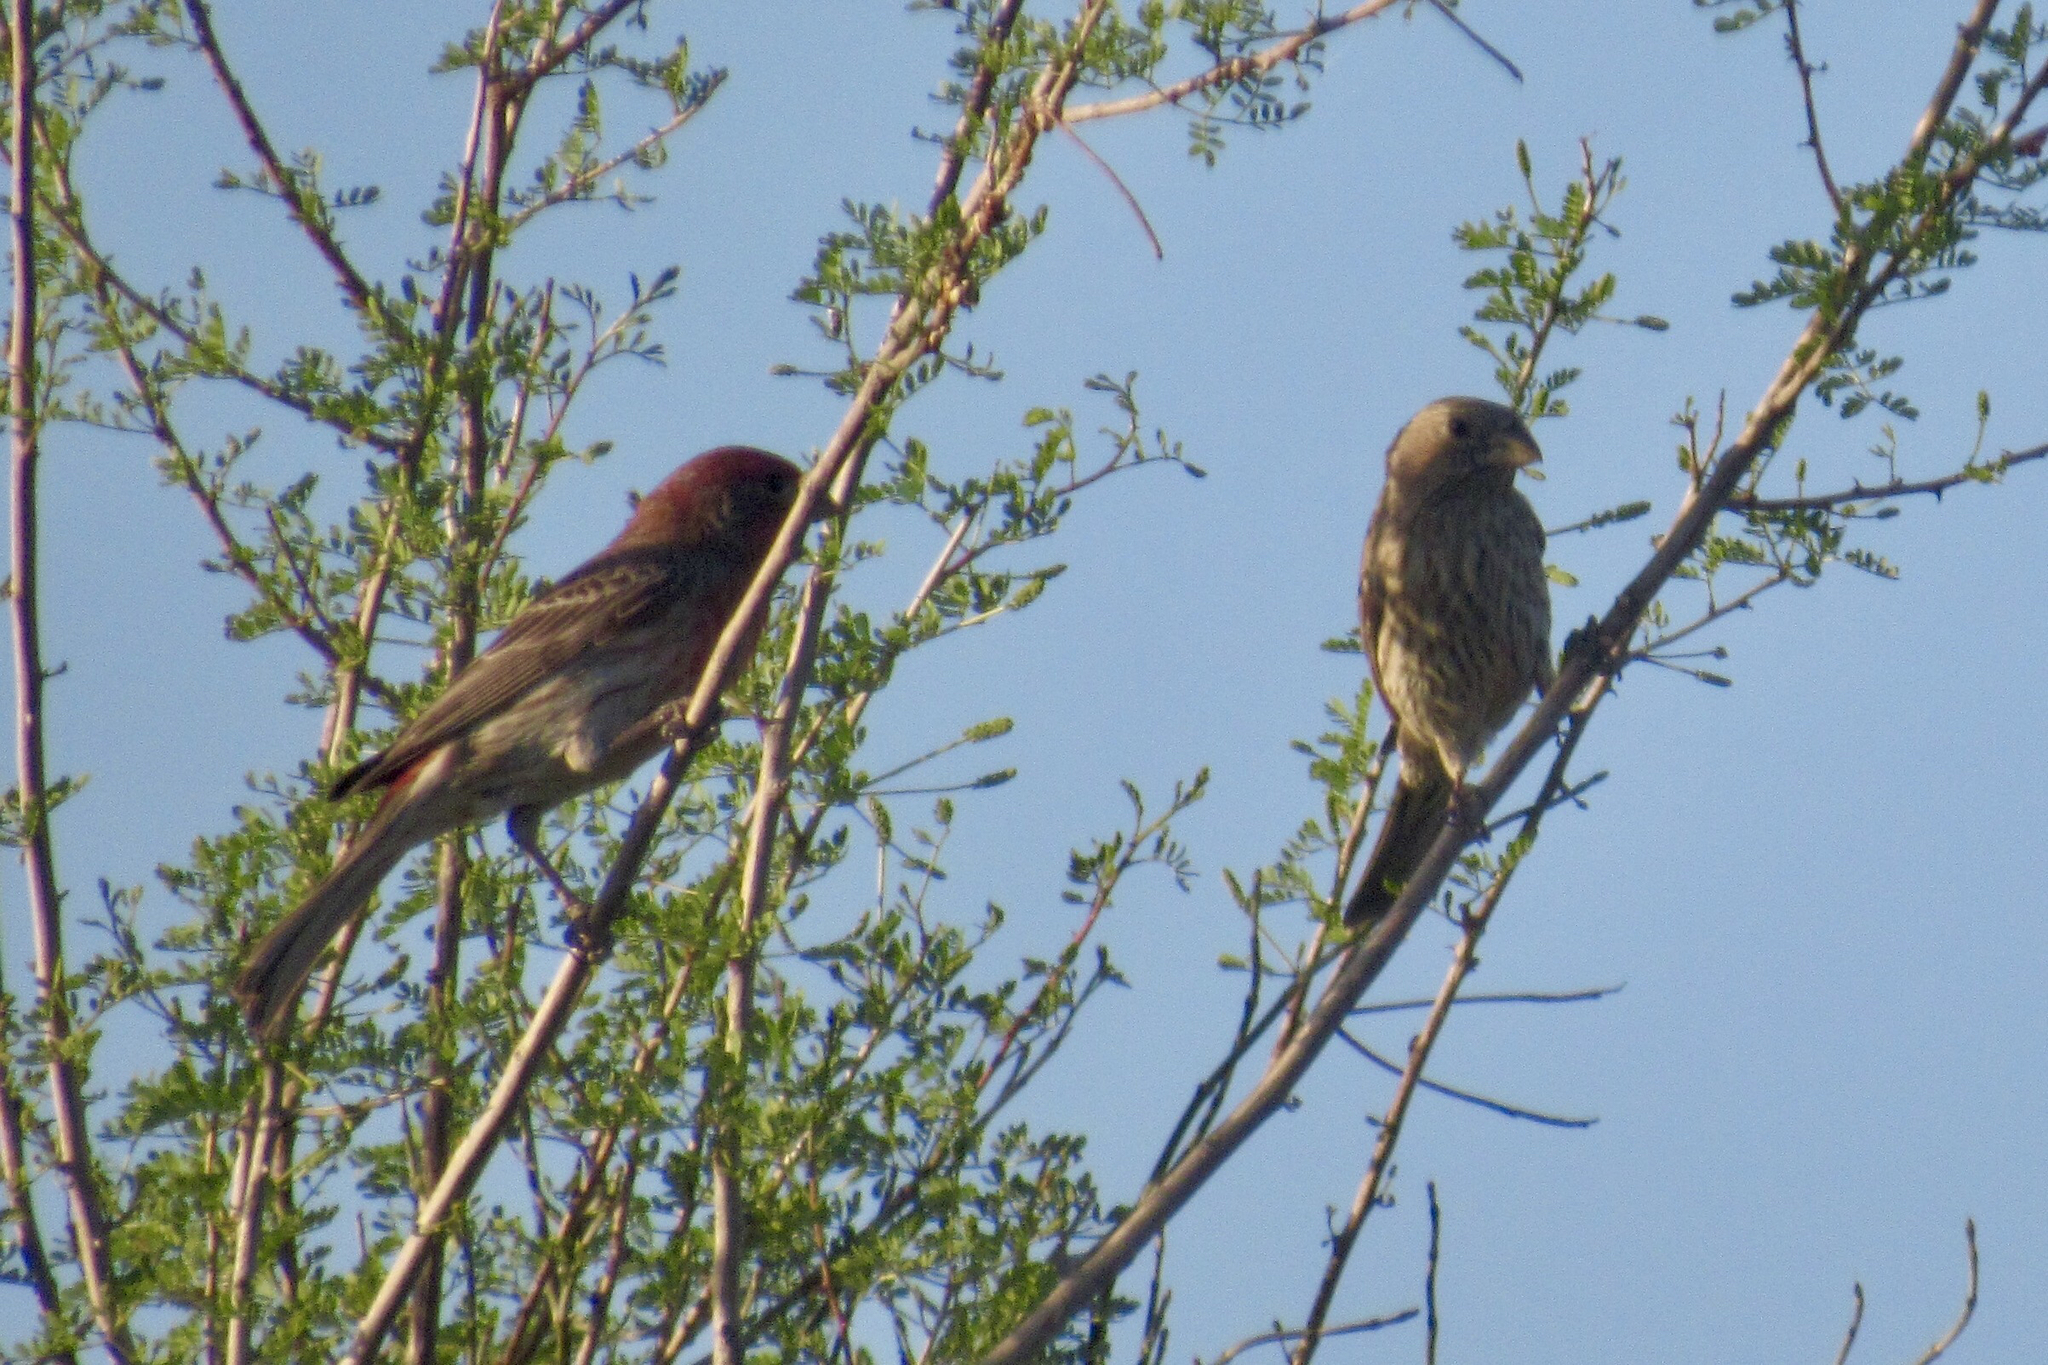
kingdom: Animalia
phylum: Chordata
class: Aves
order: Passeriformes
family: Fringillidae
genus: Haemorhous
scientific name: Haemorhous mexicanus
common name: House finch
